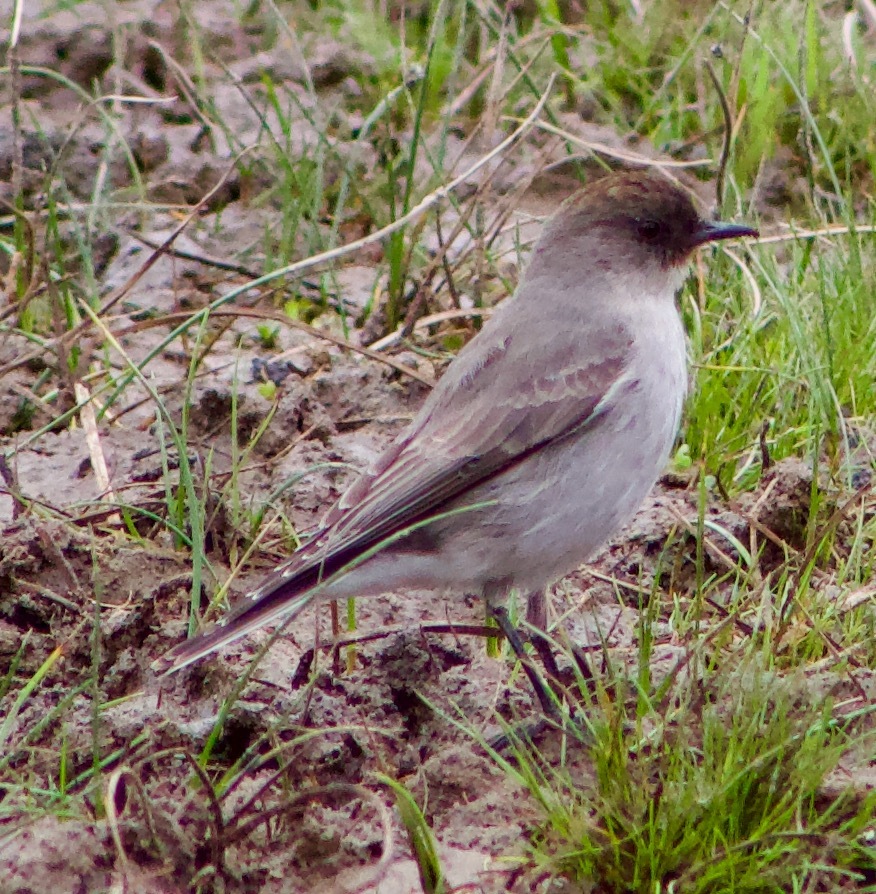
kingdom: Animalia
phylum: Chordata
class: Aves
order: Passeriformes
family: Tyrannidae
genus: Muscisaxicola
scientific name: Muscisaxicola maclovianus
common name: Dark-faced ground tyrant
